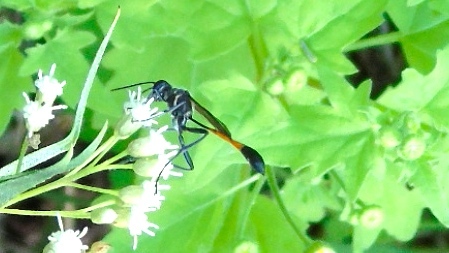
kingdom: Animalia
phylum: Arthropoda
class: Insecta
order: Hymenoptera
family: Sphecidae
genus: Ammophila
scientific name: Ammophila
